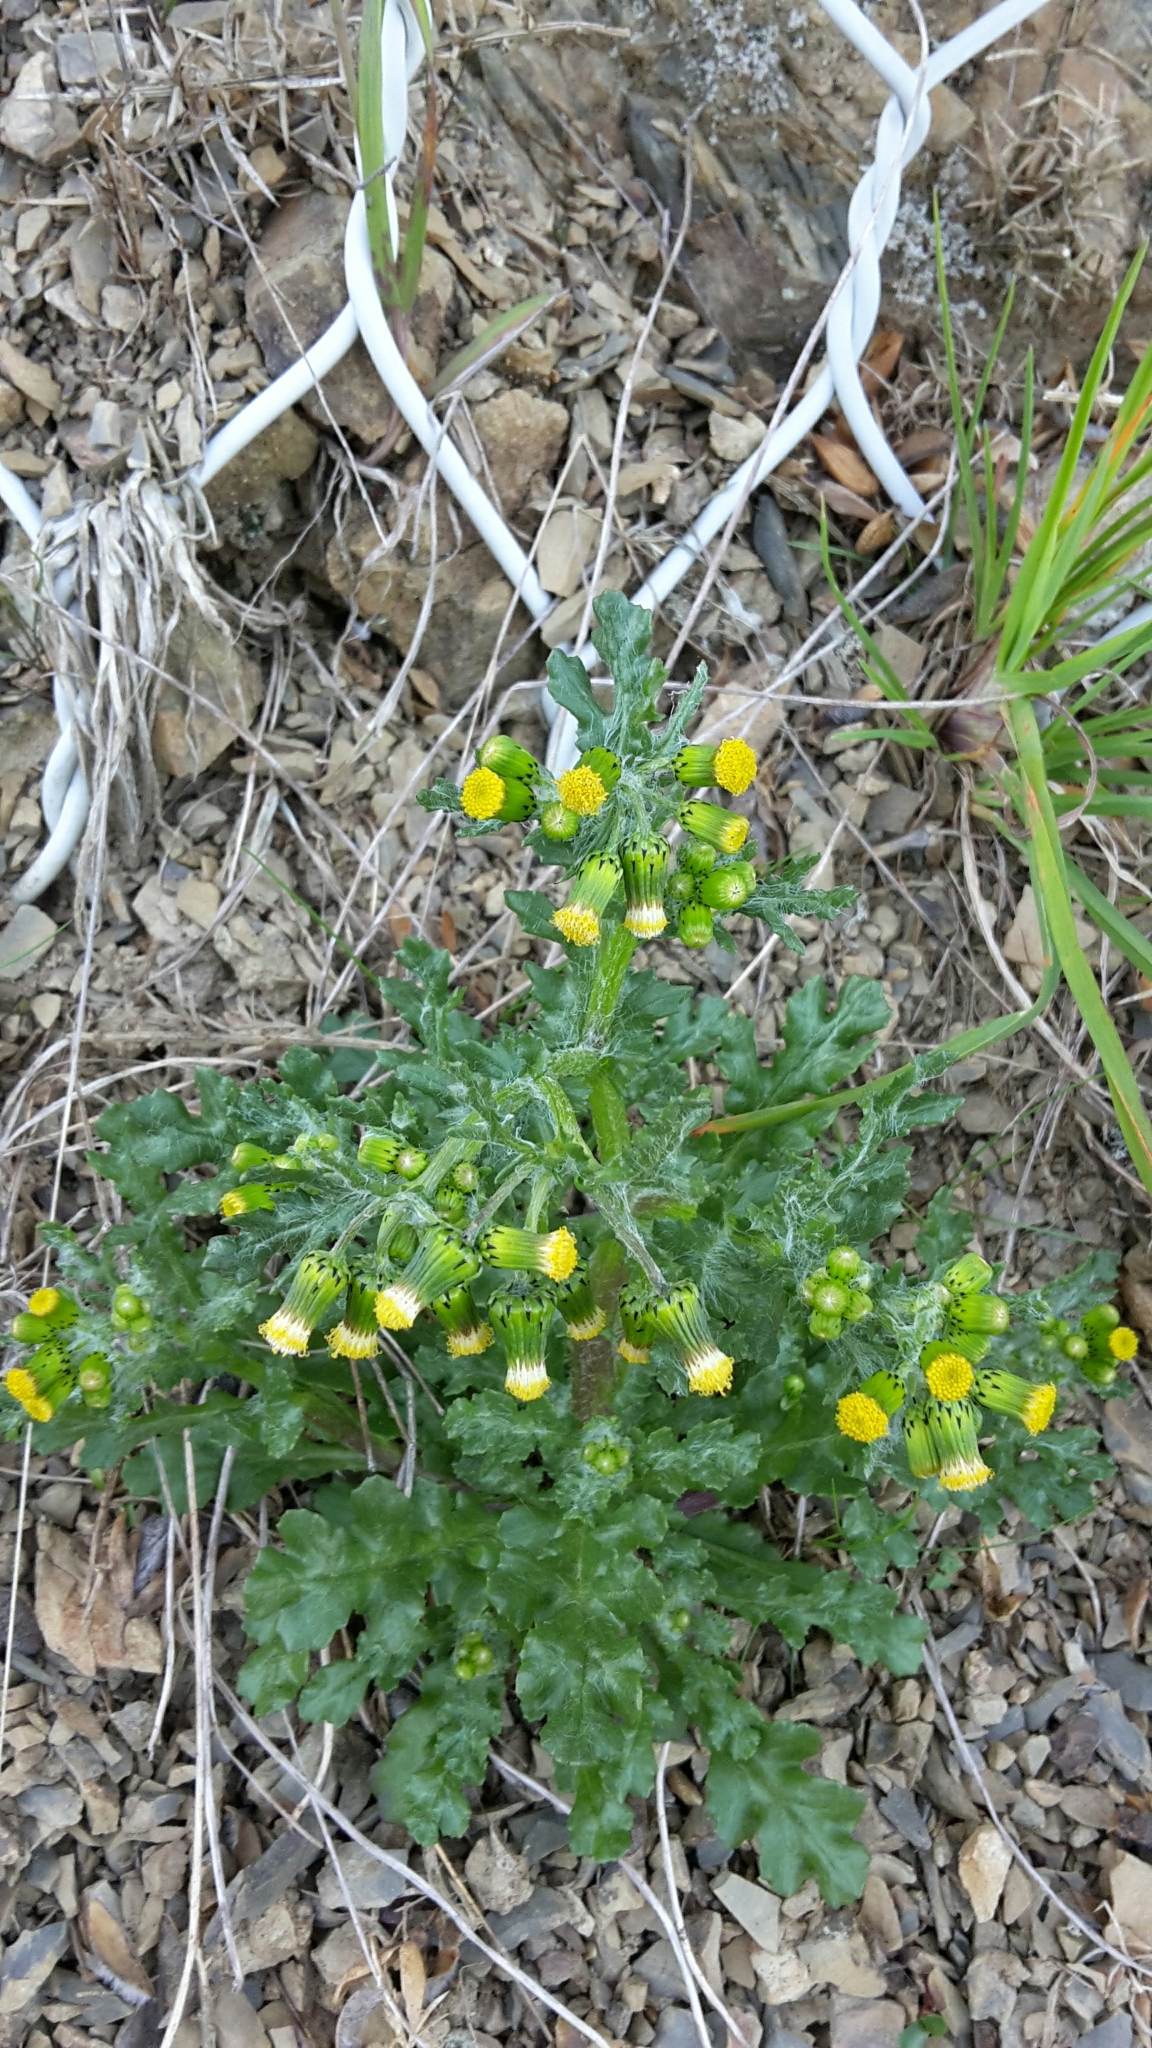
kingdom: Plantae
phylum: Tracheophyta
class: Magnoliopsida
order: Asterales
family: Asteraceae
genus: Senecio
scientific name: Senecio vulgaris
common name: Old-man-in-the-spring
